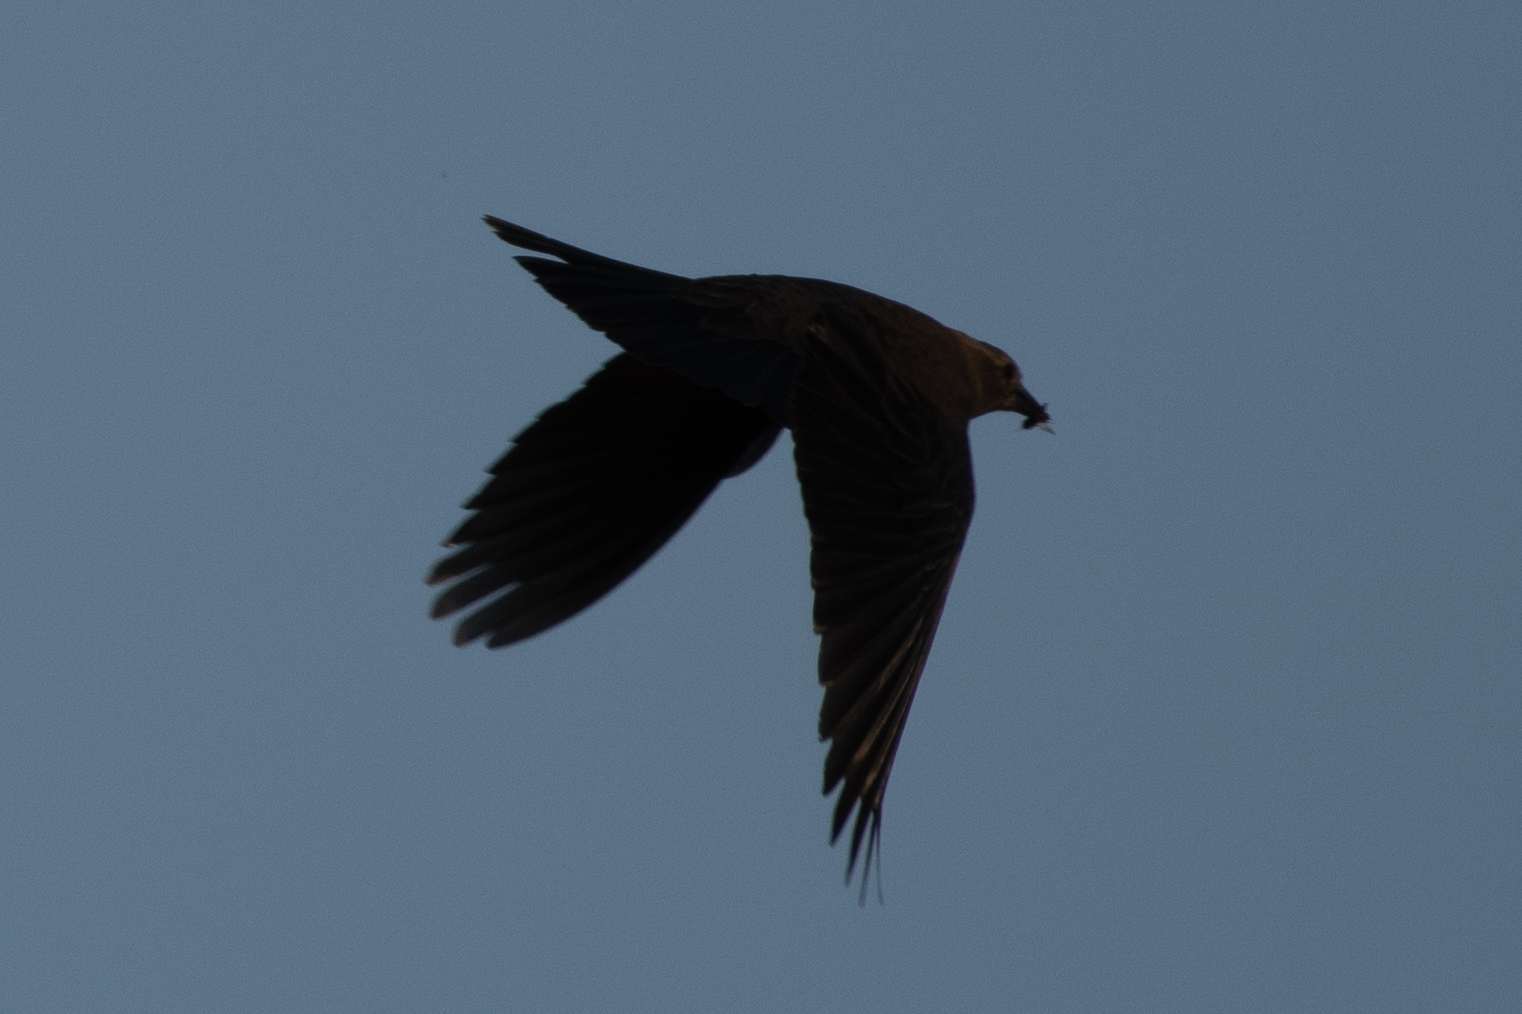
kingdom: Animalia
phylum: Chordata
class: Aves
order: Passeriformes
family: Icteridae
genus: Quiscalus
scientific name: Quiscalus mexicanus
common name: Great-tailed grackle
